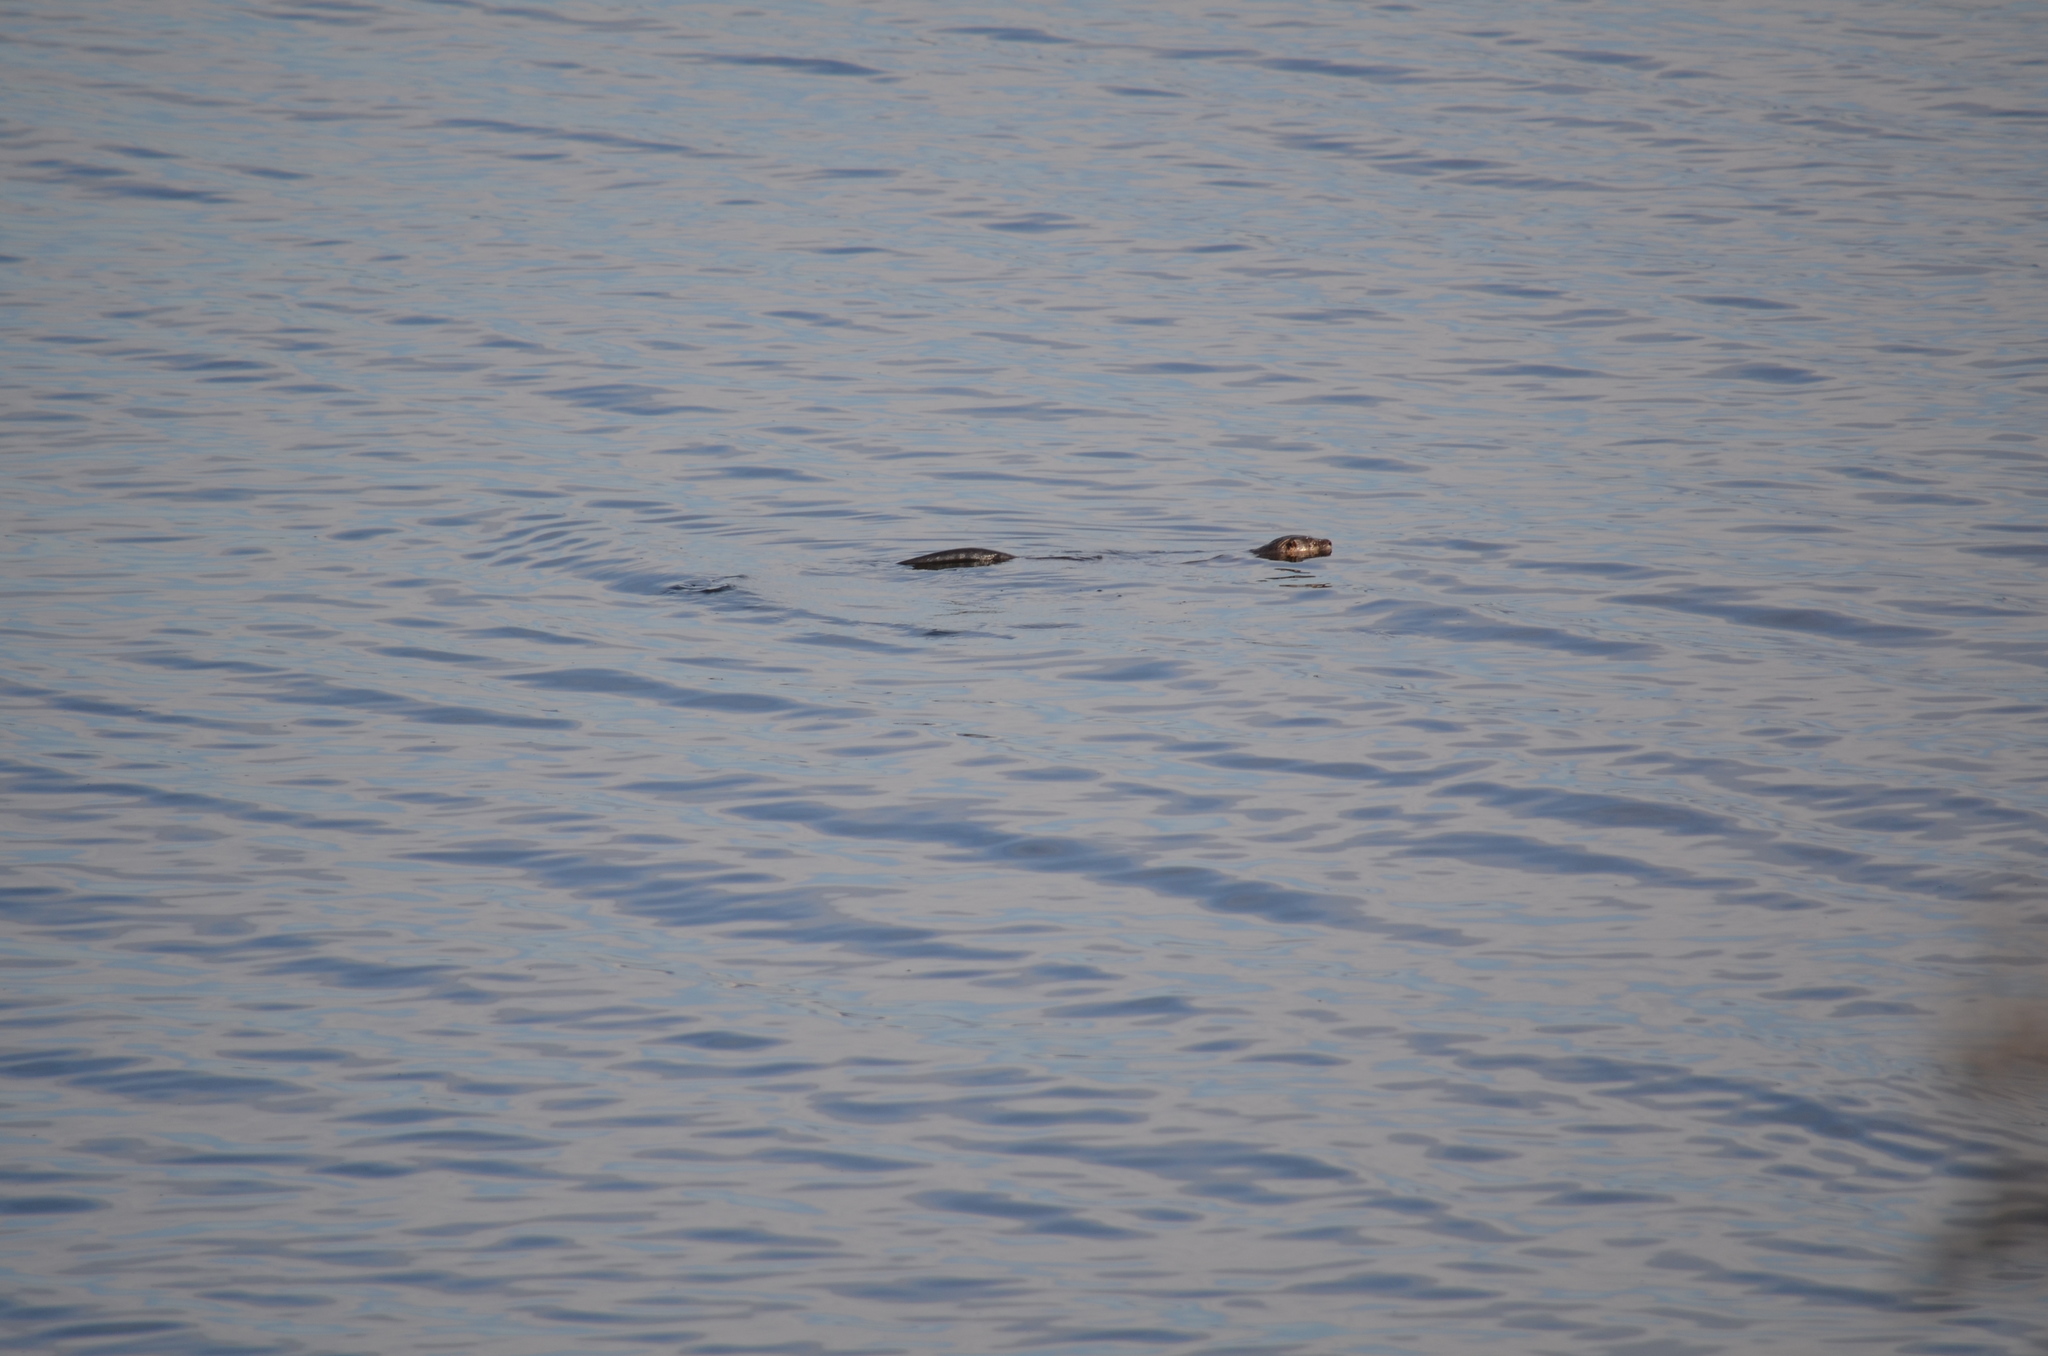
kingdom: Animalia
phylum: Chordata
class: Mammalia
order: Carnivora
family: Mustelidae
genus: Lontra
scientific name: Lontra canadensis
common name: North american river otter
